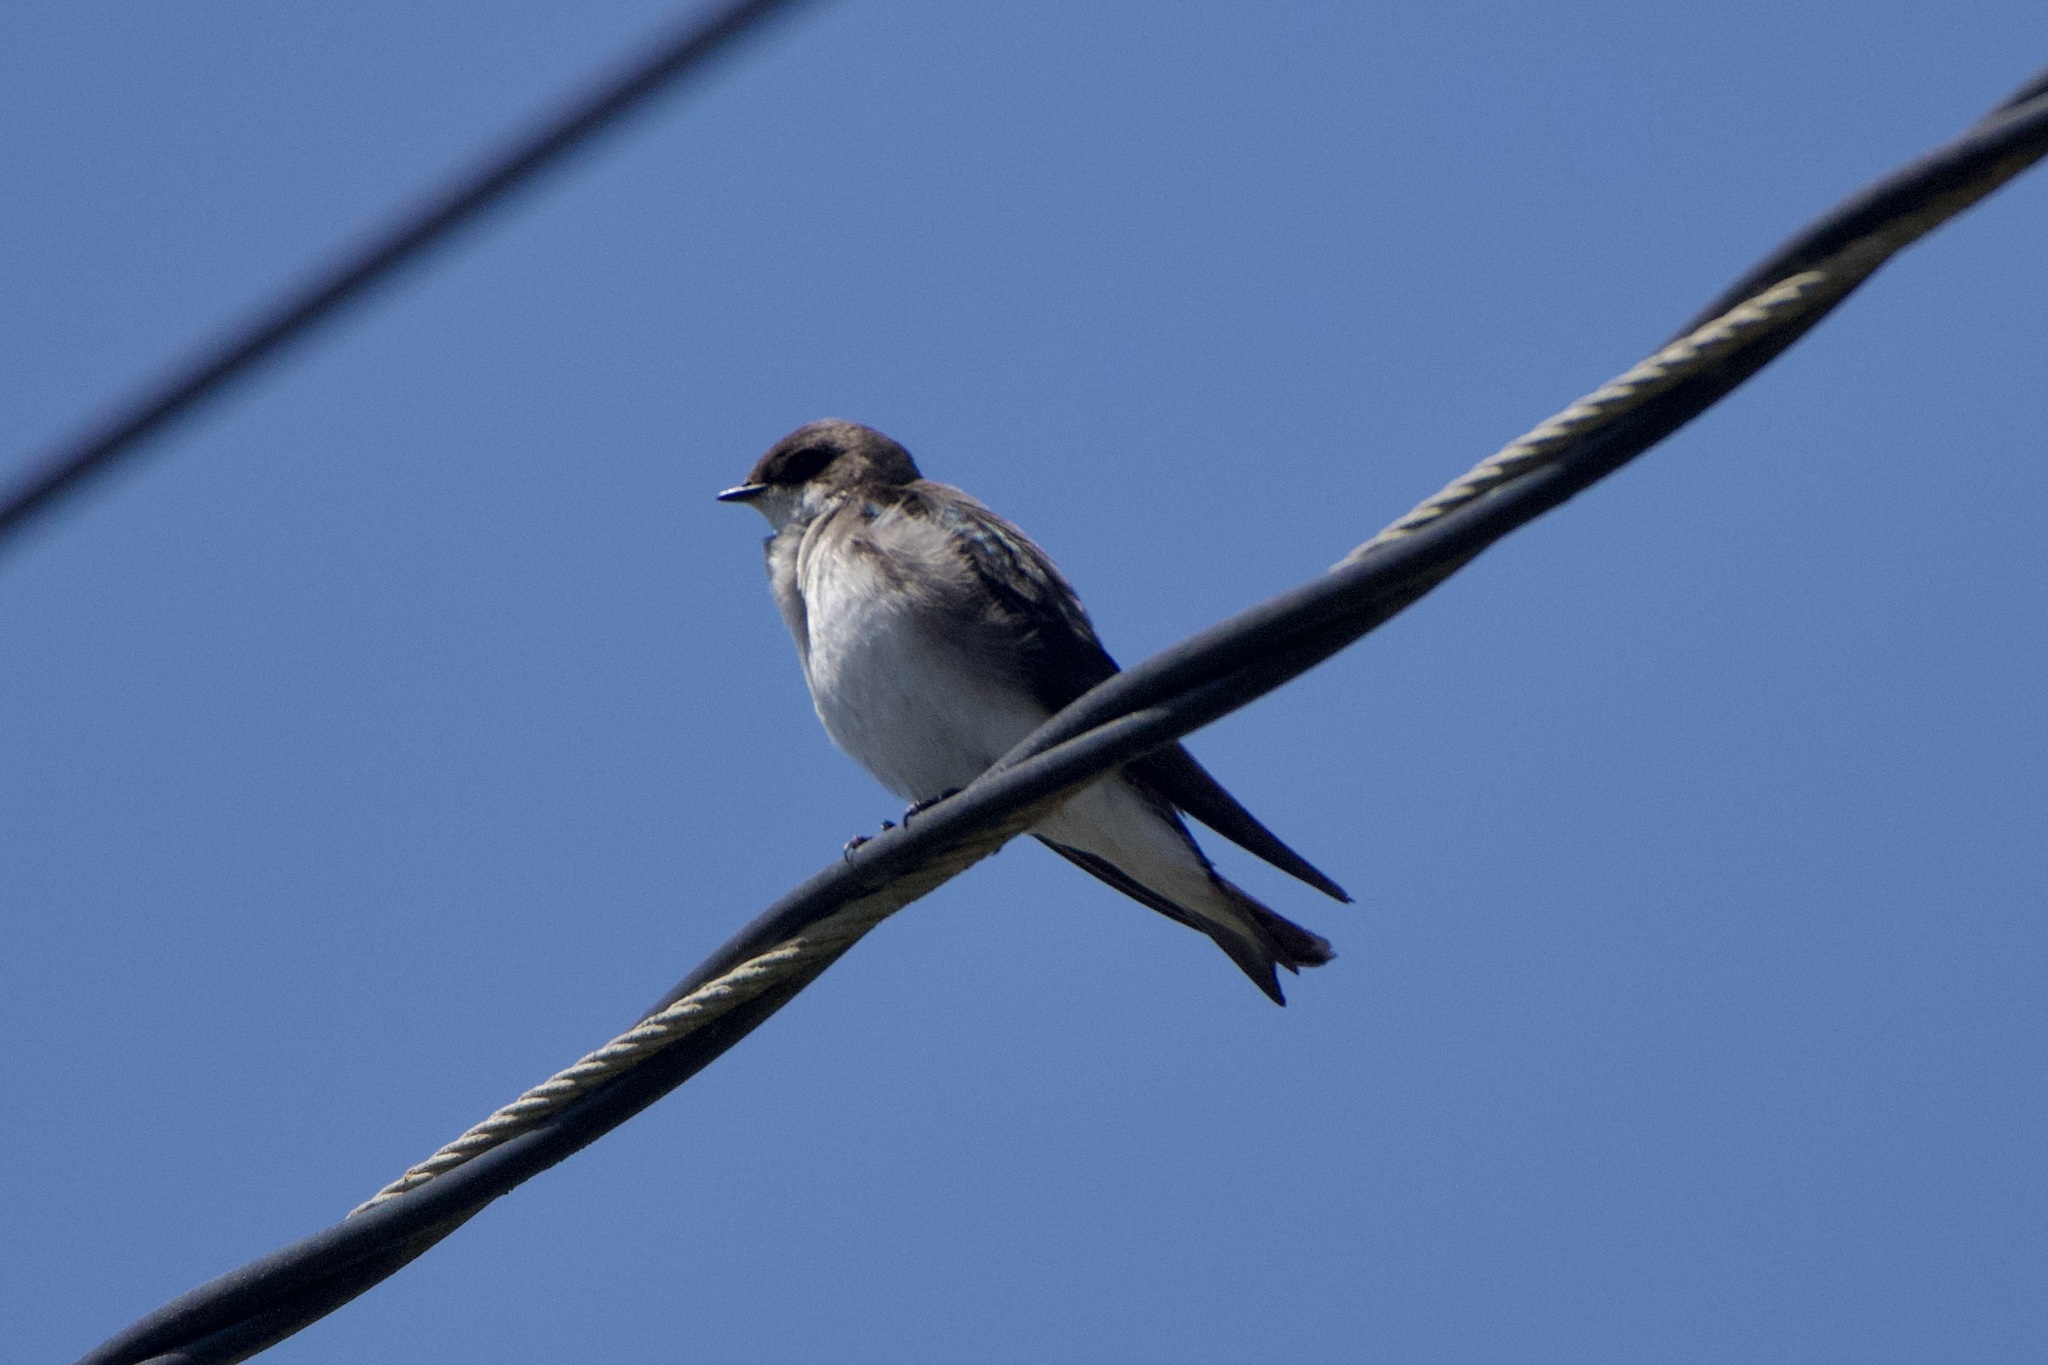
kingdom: Animalia
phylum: Chordata
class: Aves
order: Passeriformes
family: Hirundinidae
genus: Tachycineta
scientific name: Tachycineta bicolor
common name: Tree swallow
